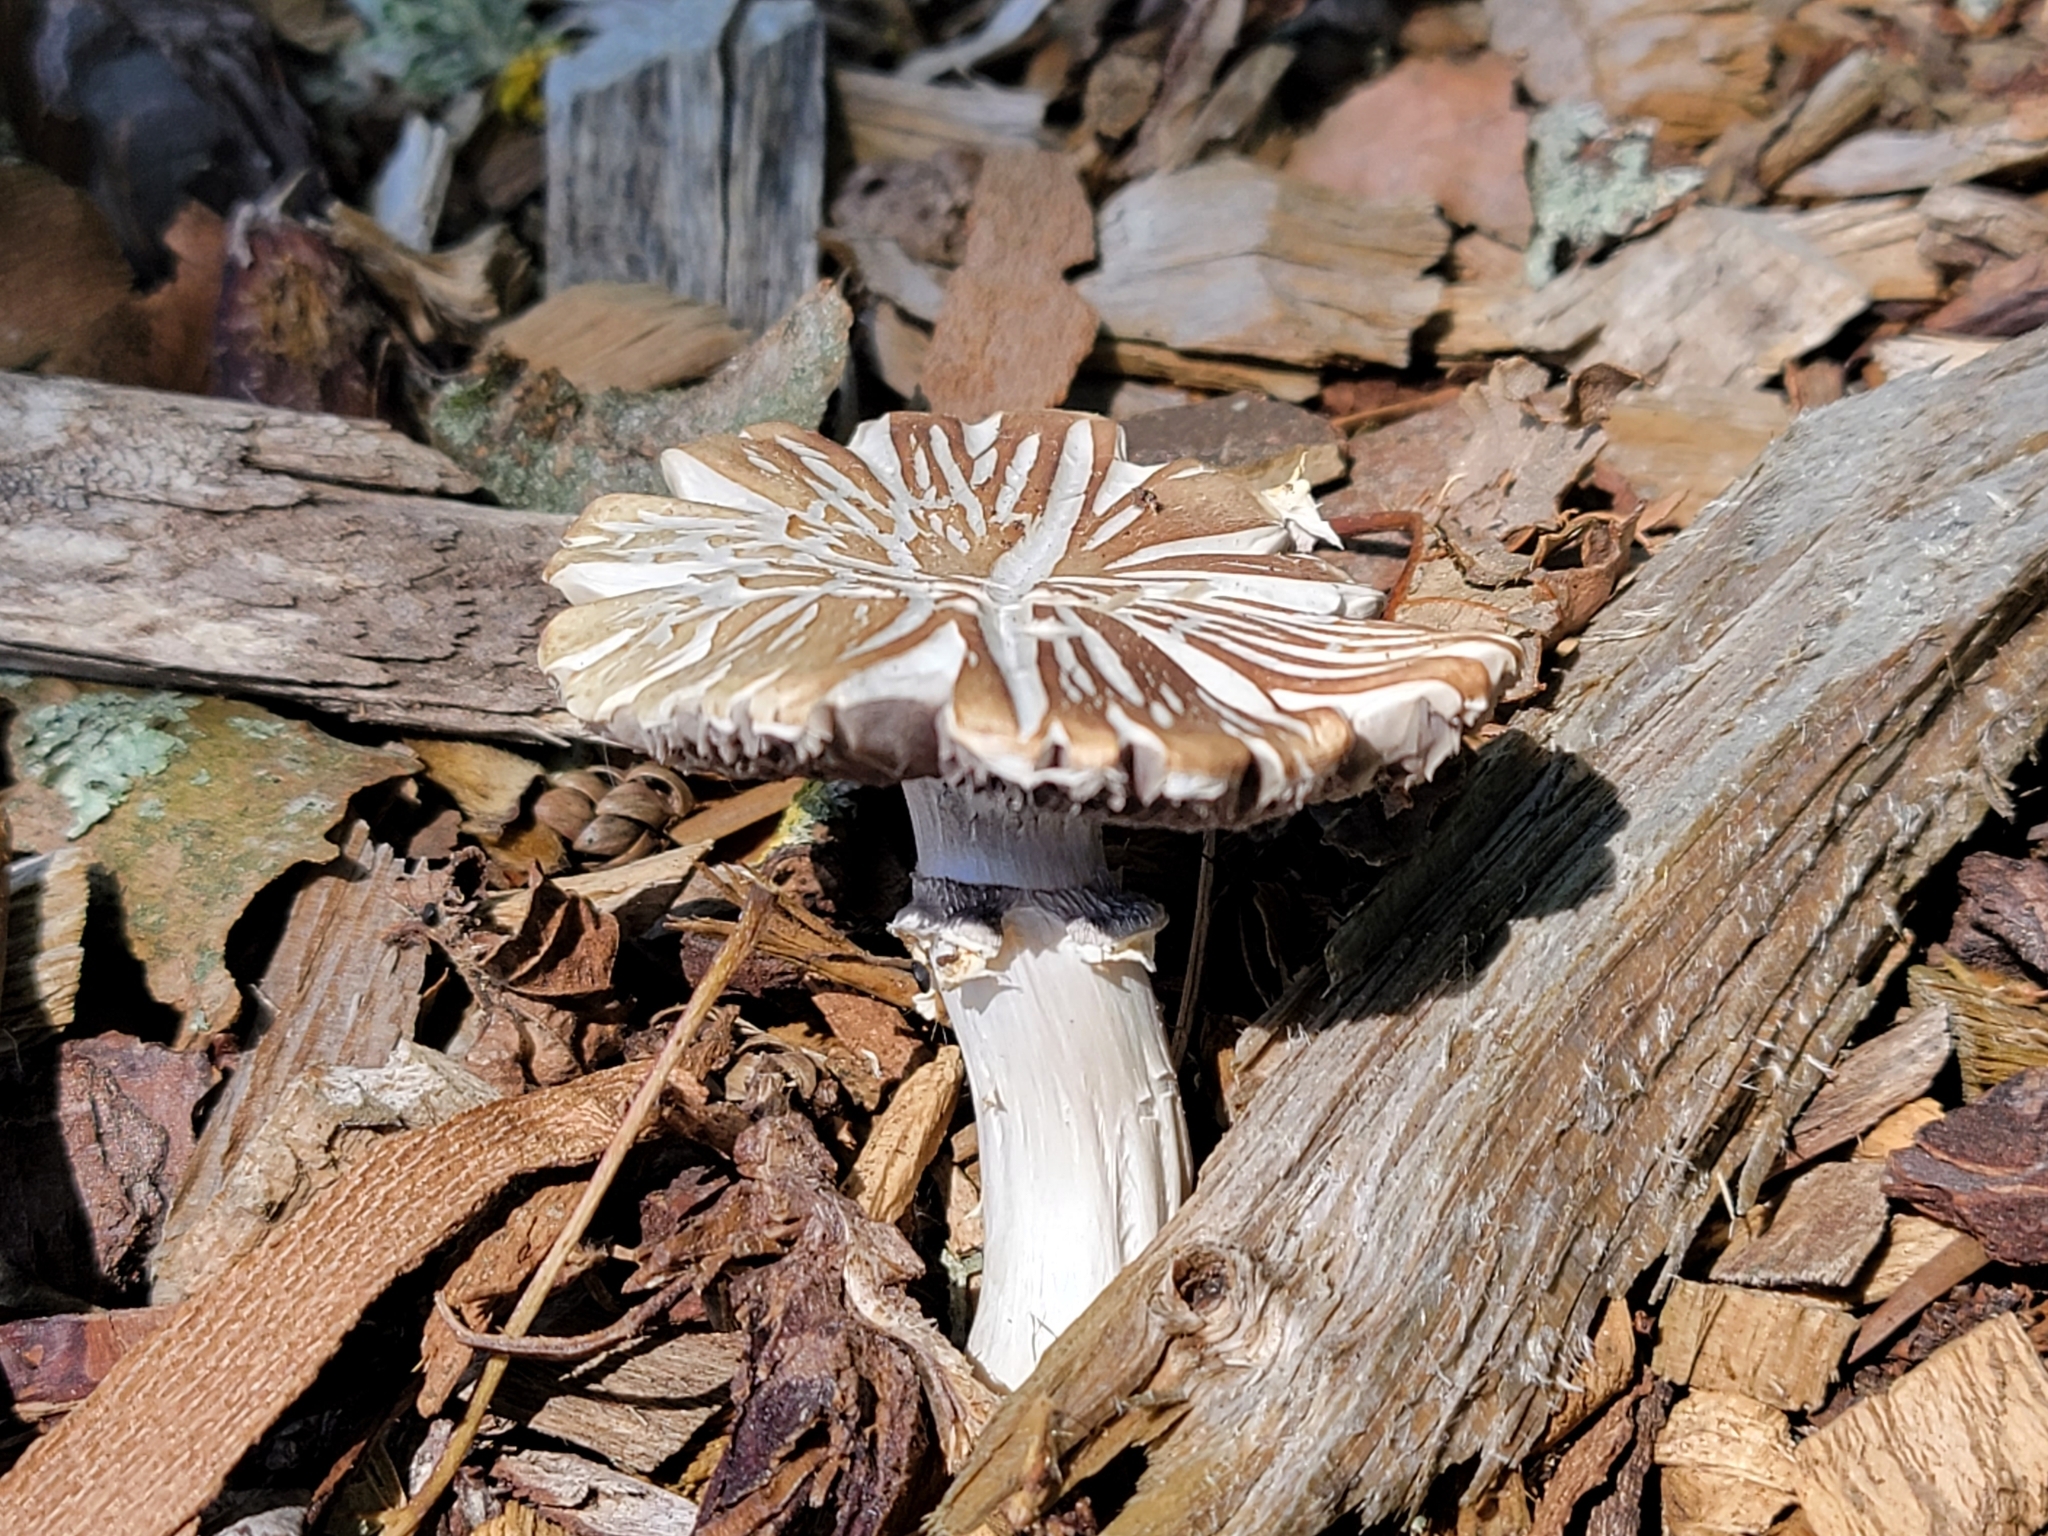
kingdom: Fungi
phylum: Basidiomycota
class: Agaricomycetes
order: Agaricales
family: Strophariaceae
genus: Stropharia
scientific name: Stropharia rugosoannulata
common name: Wine roundhead
